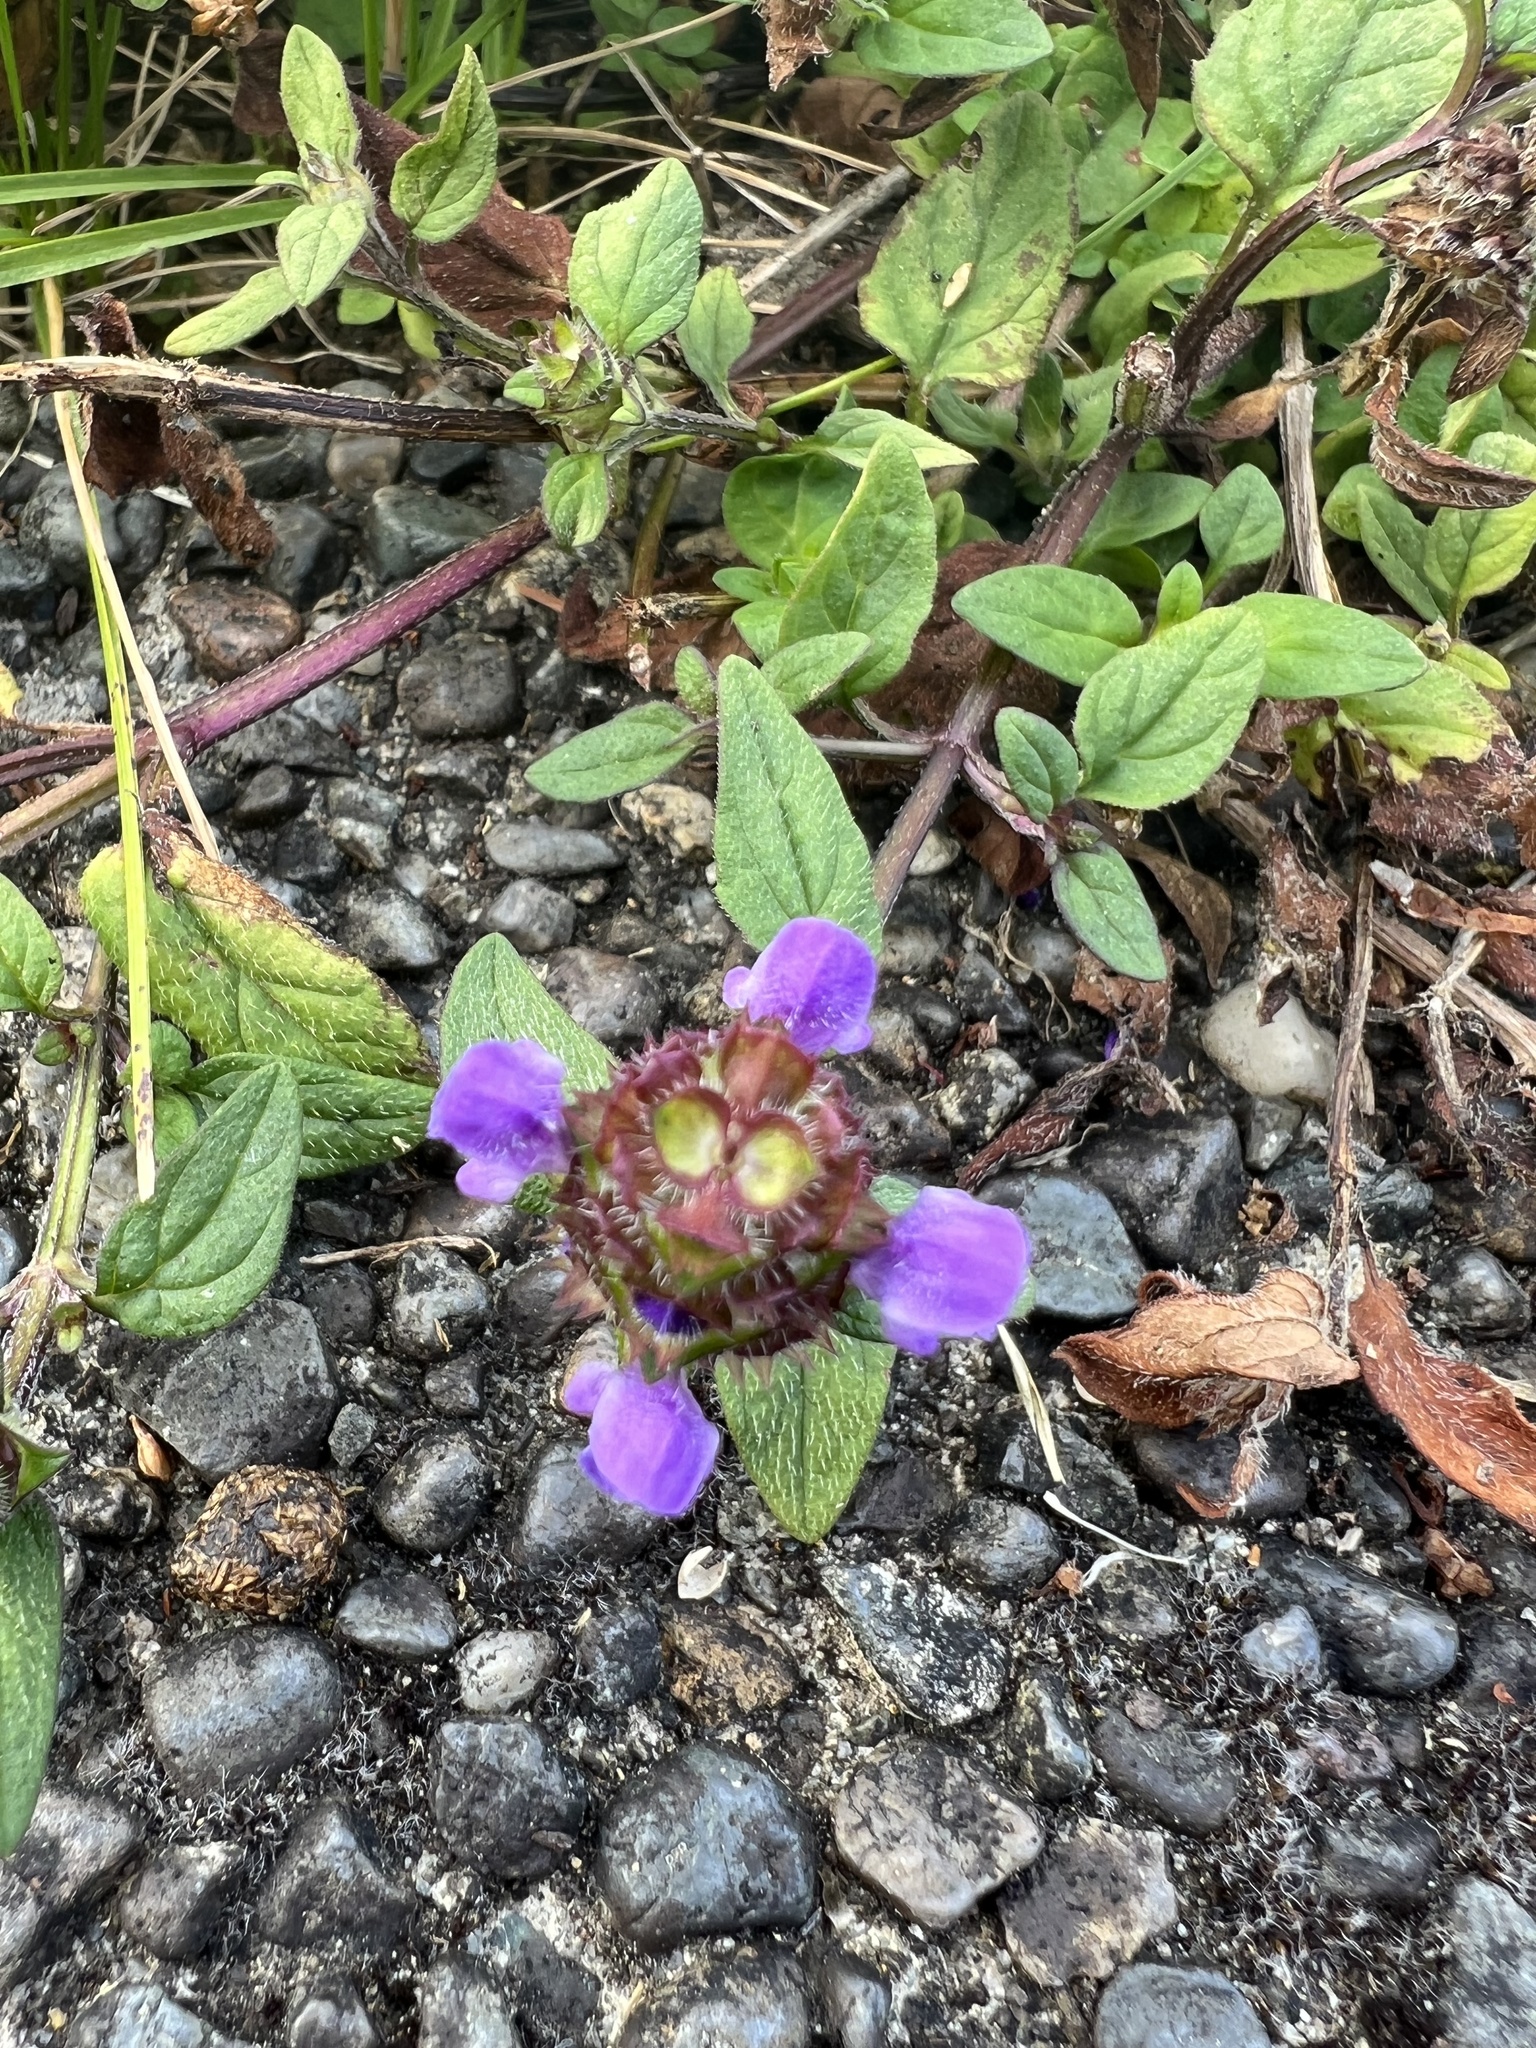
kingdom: Plantae
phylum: Tracheophyta
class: Magnoliopsida
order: Lamiales
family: Lamiaceae
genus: Prunella
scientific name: Prunella vulgaris
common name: Heal-all
